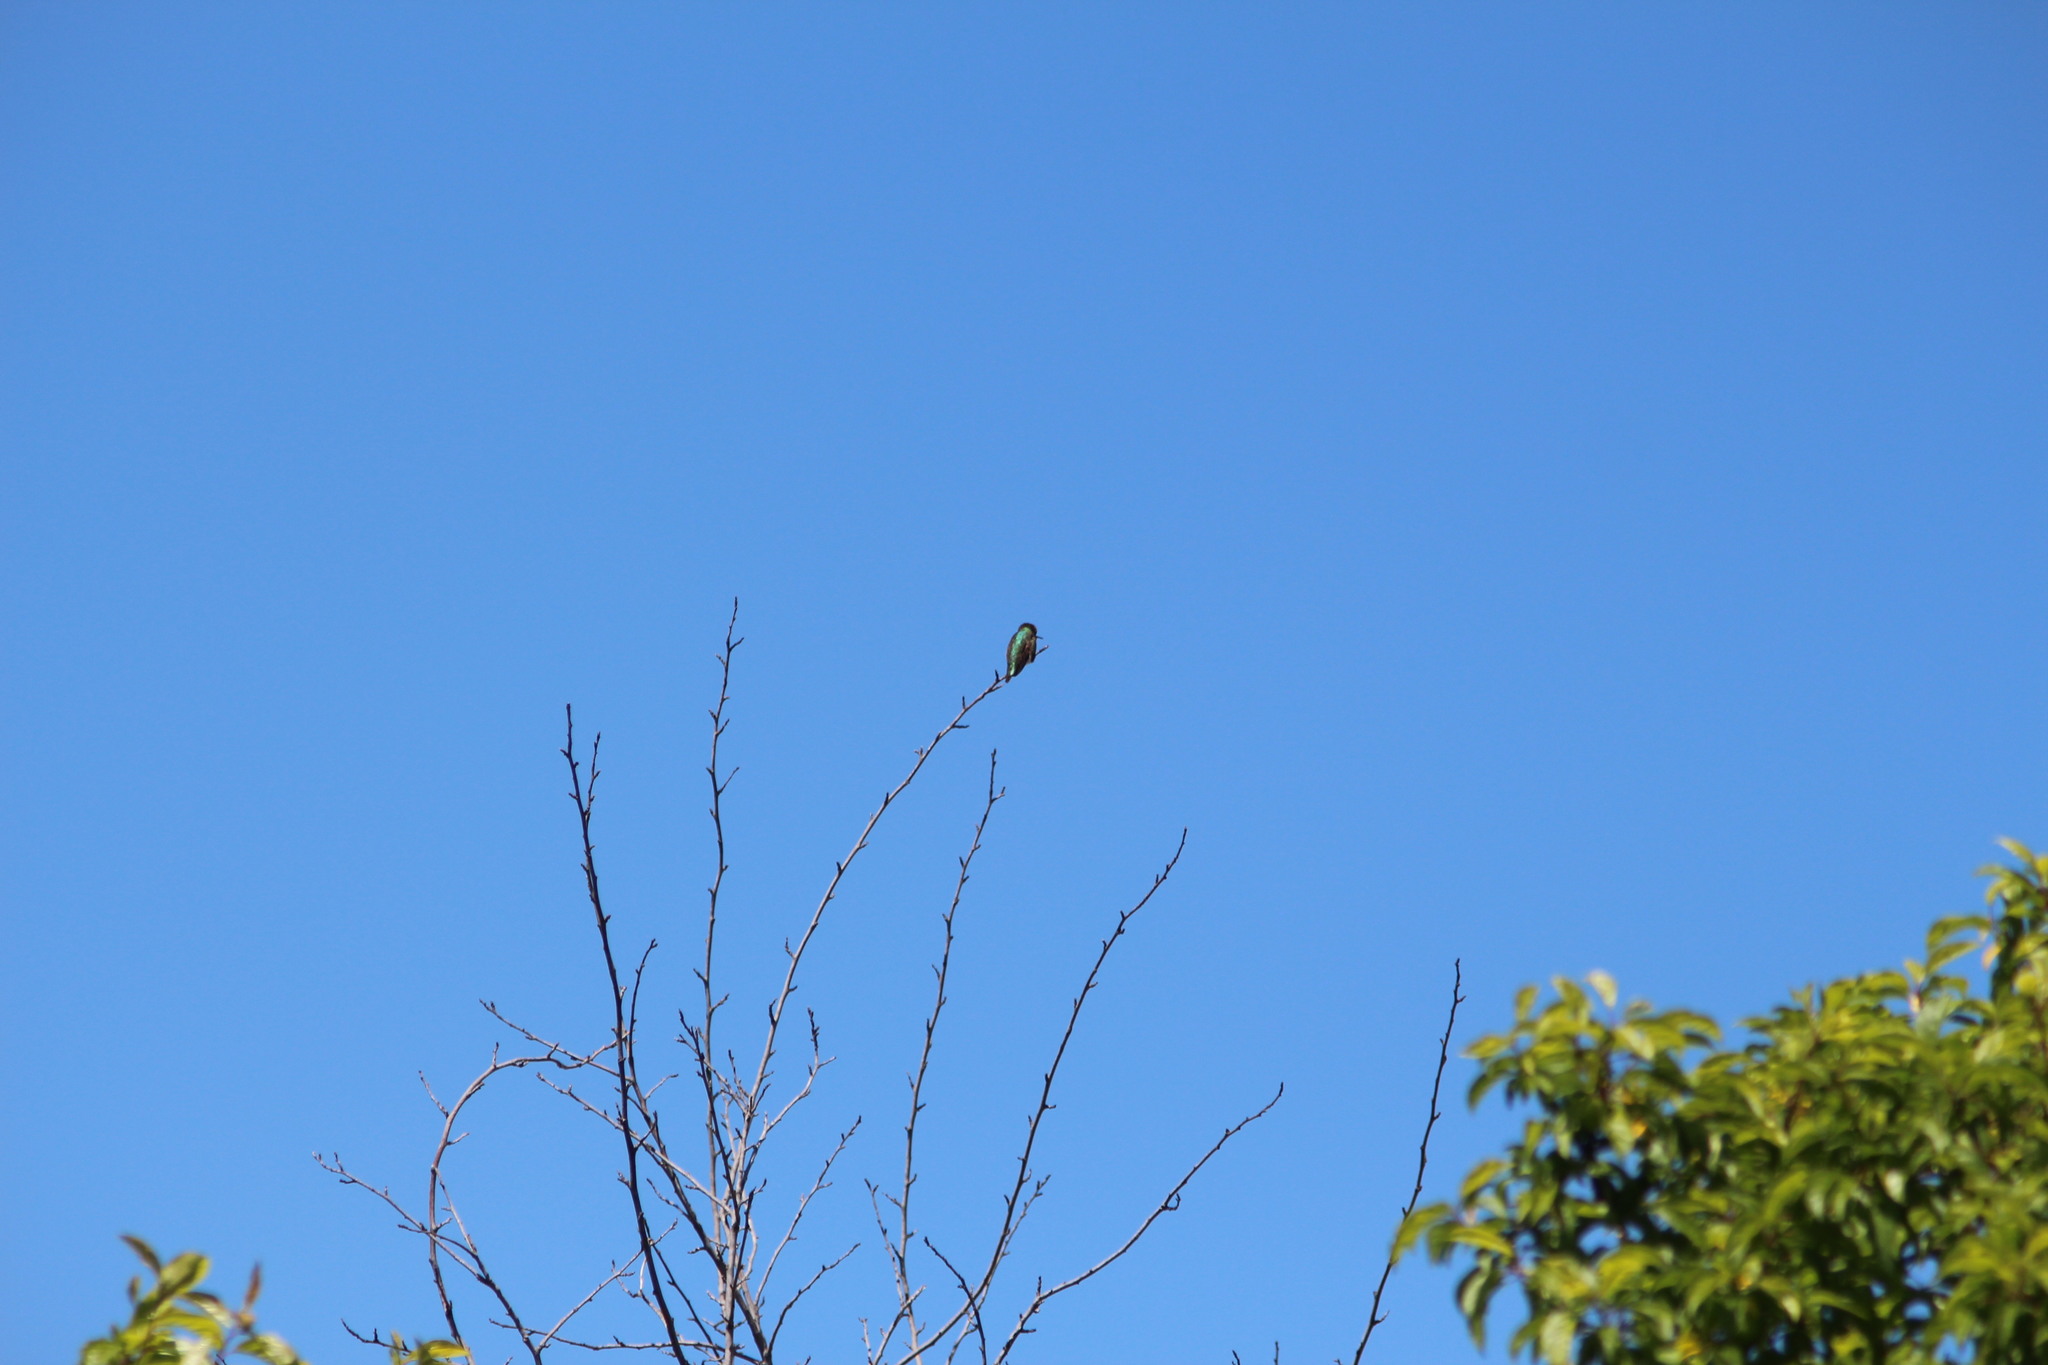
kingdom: Animalia
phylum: Chordata
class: Aves
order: Apodiformes
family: Trochilidae
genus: Calypte
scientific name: Calypte anna
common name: Anna's hummingbird
